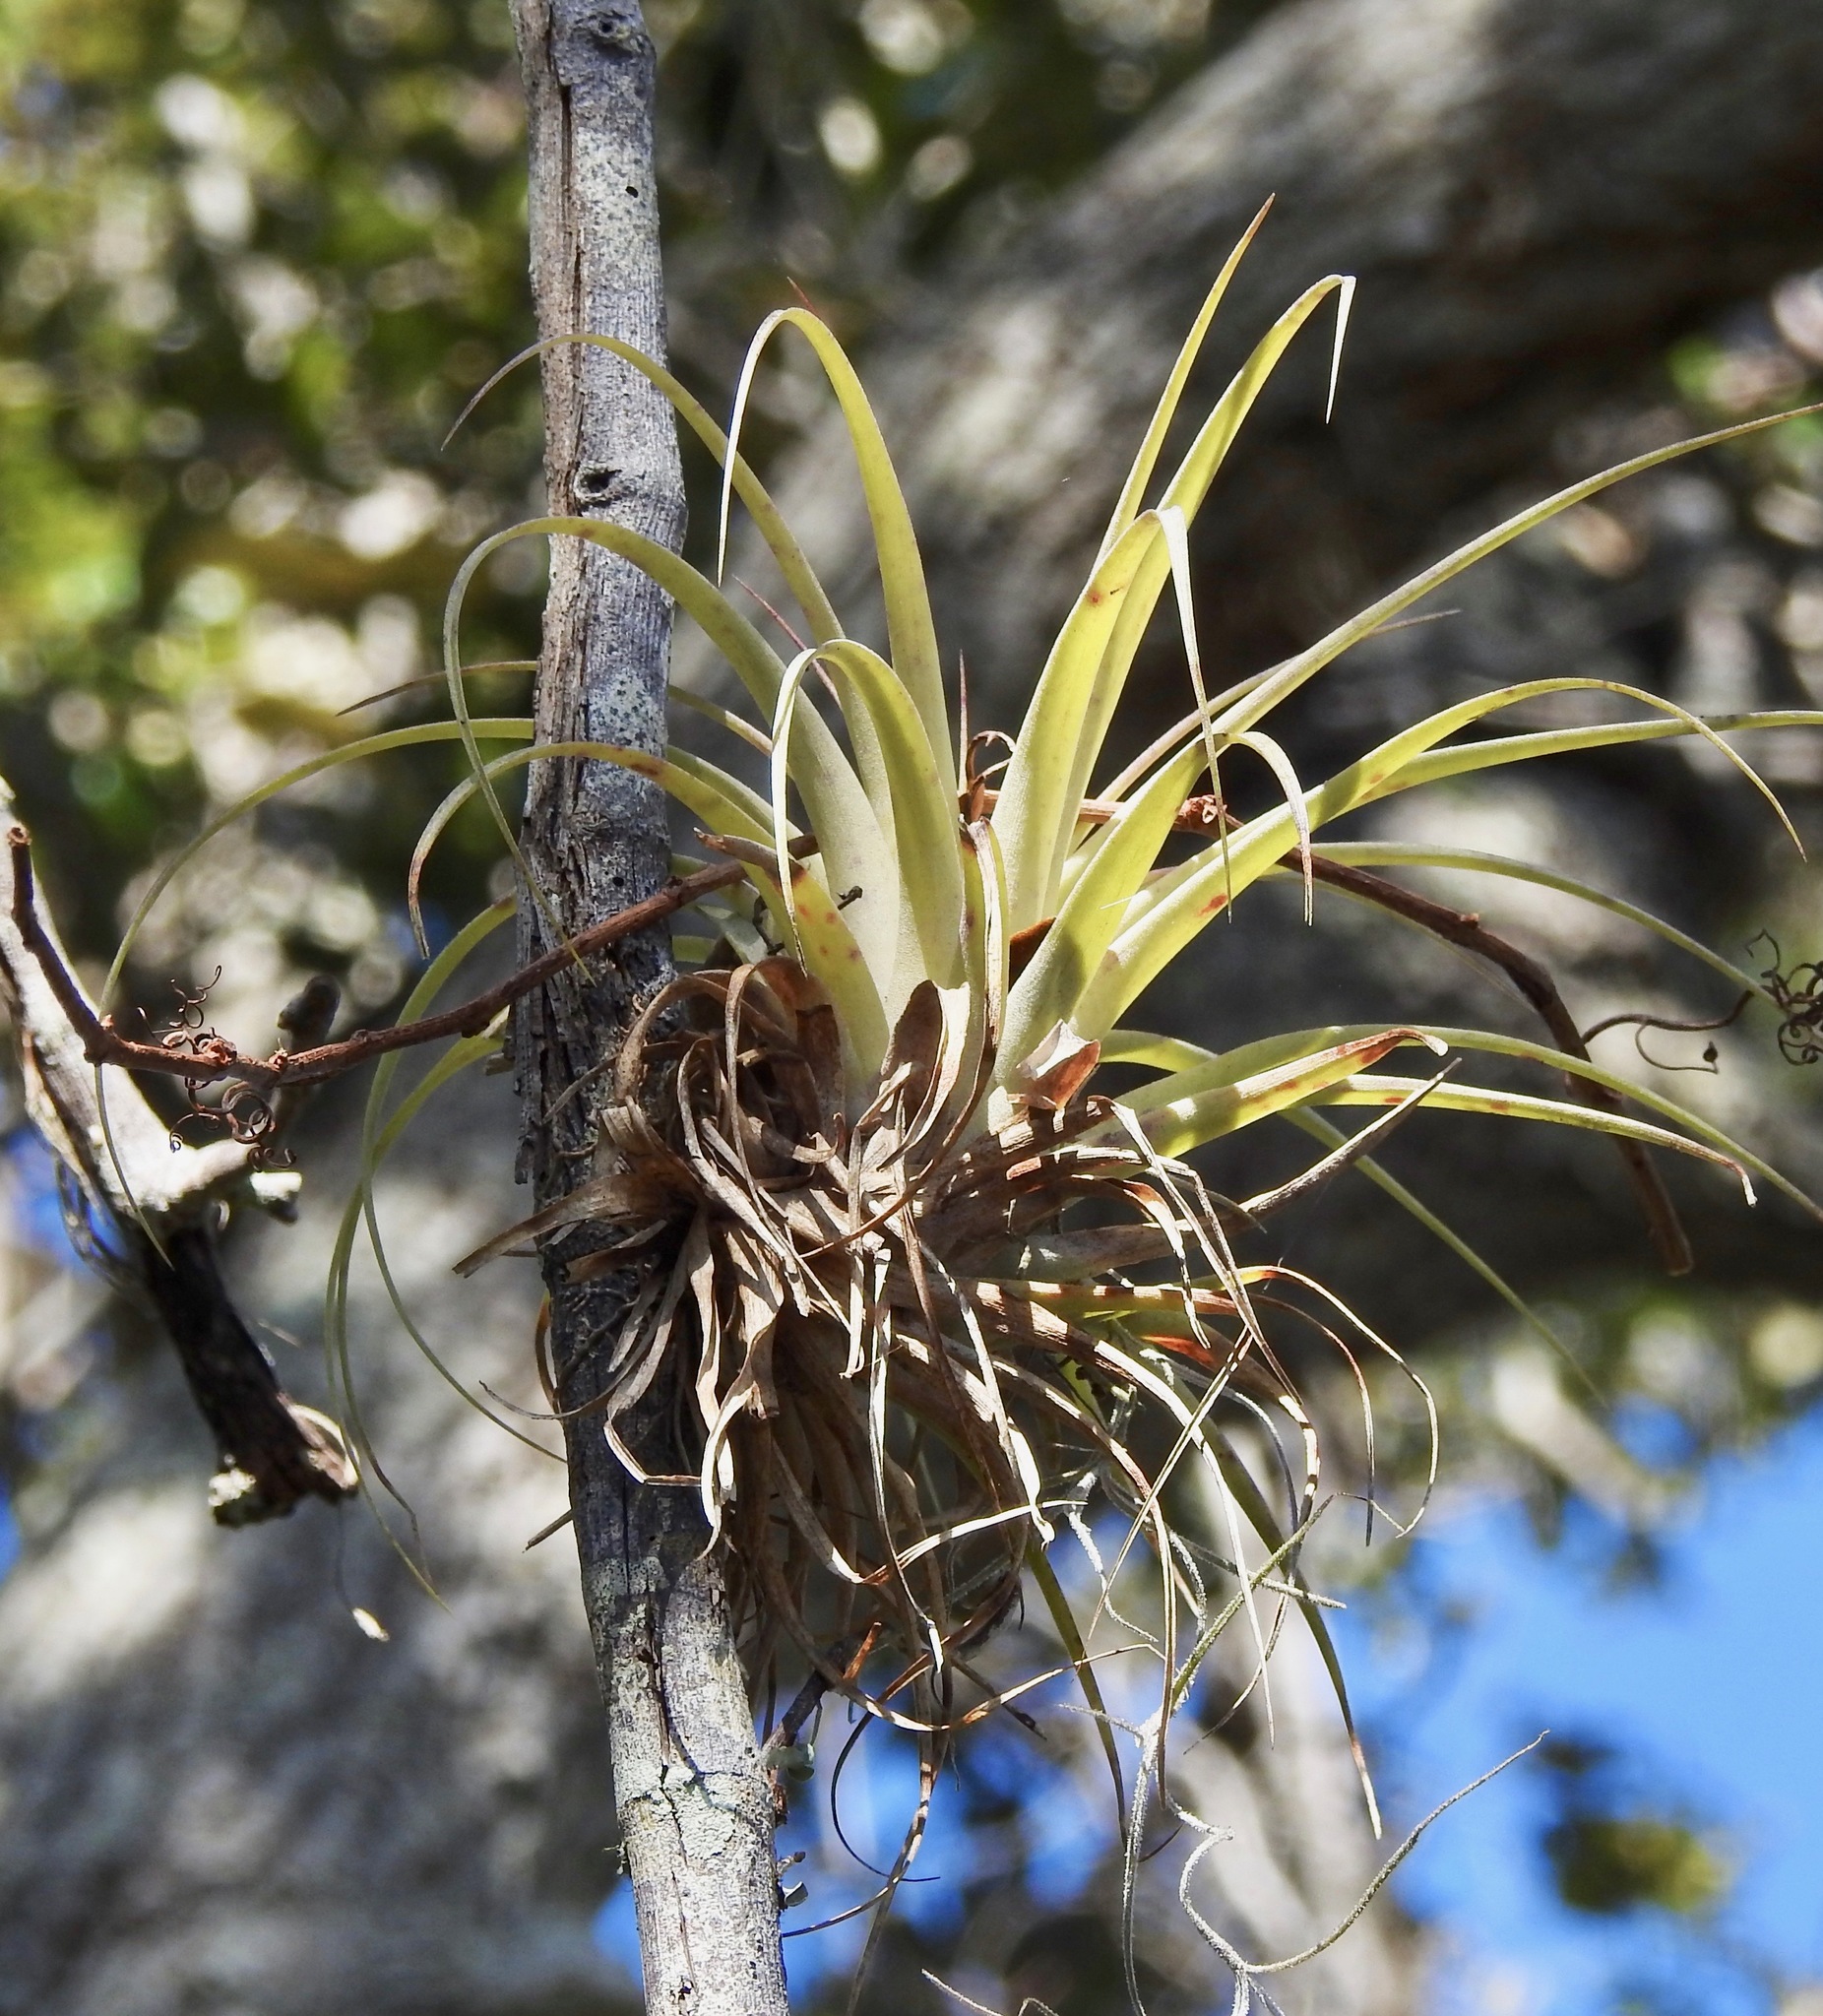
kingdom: Plantae
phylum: Tracheophyta
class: Liliopsida
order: Poales
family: Bromeliaceae
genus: Tillandsia
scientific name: Tillandsia utriculata
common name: Wild pine
